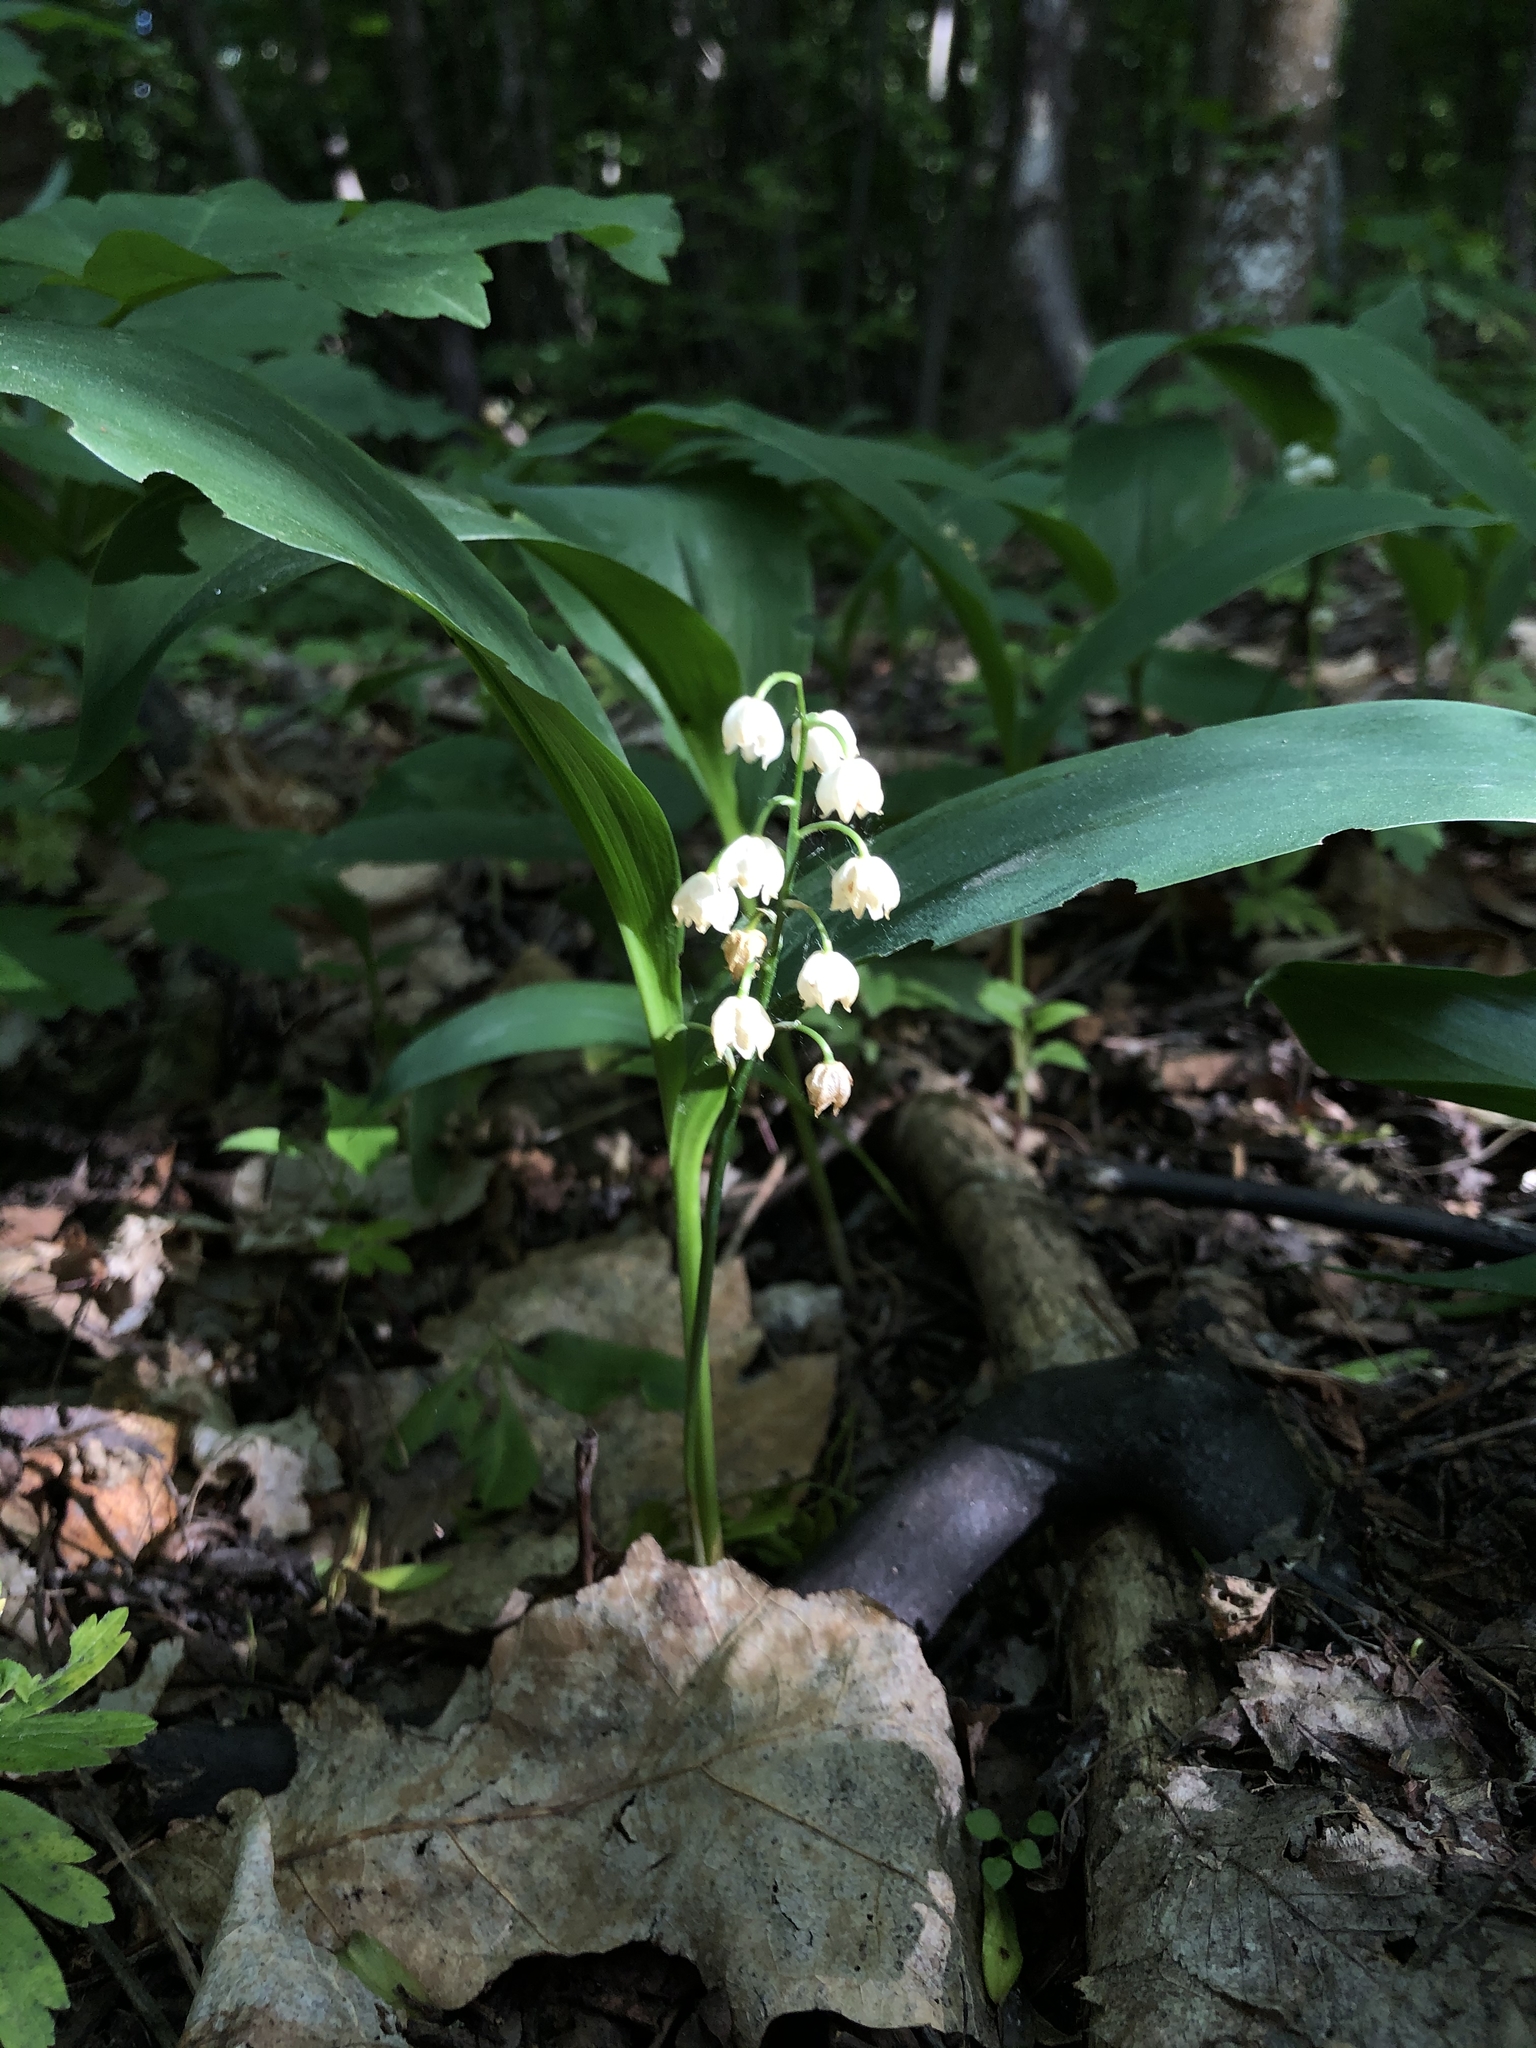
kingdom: Plantae
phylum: Tracheophyta
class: Liliopsida
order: Asparagales
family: Asparagaceae
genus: Convallaria
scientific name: Convallaria majalis
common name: Lily-of-the-valley
